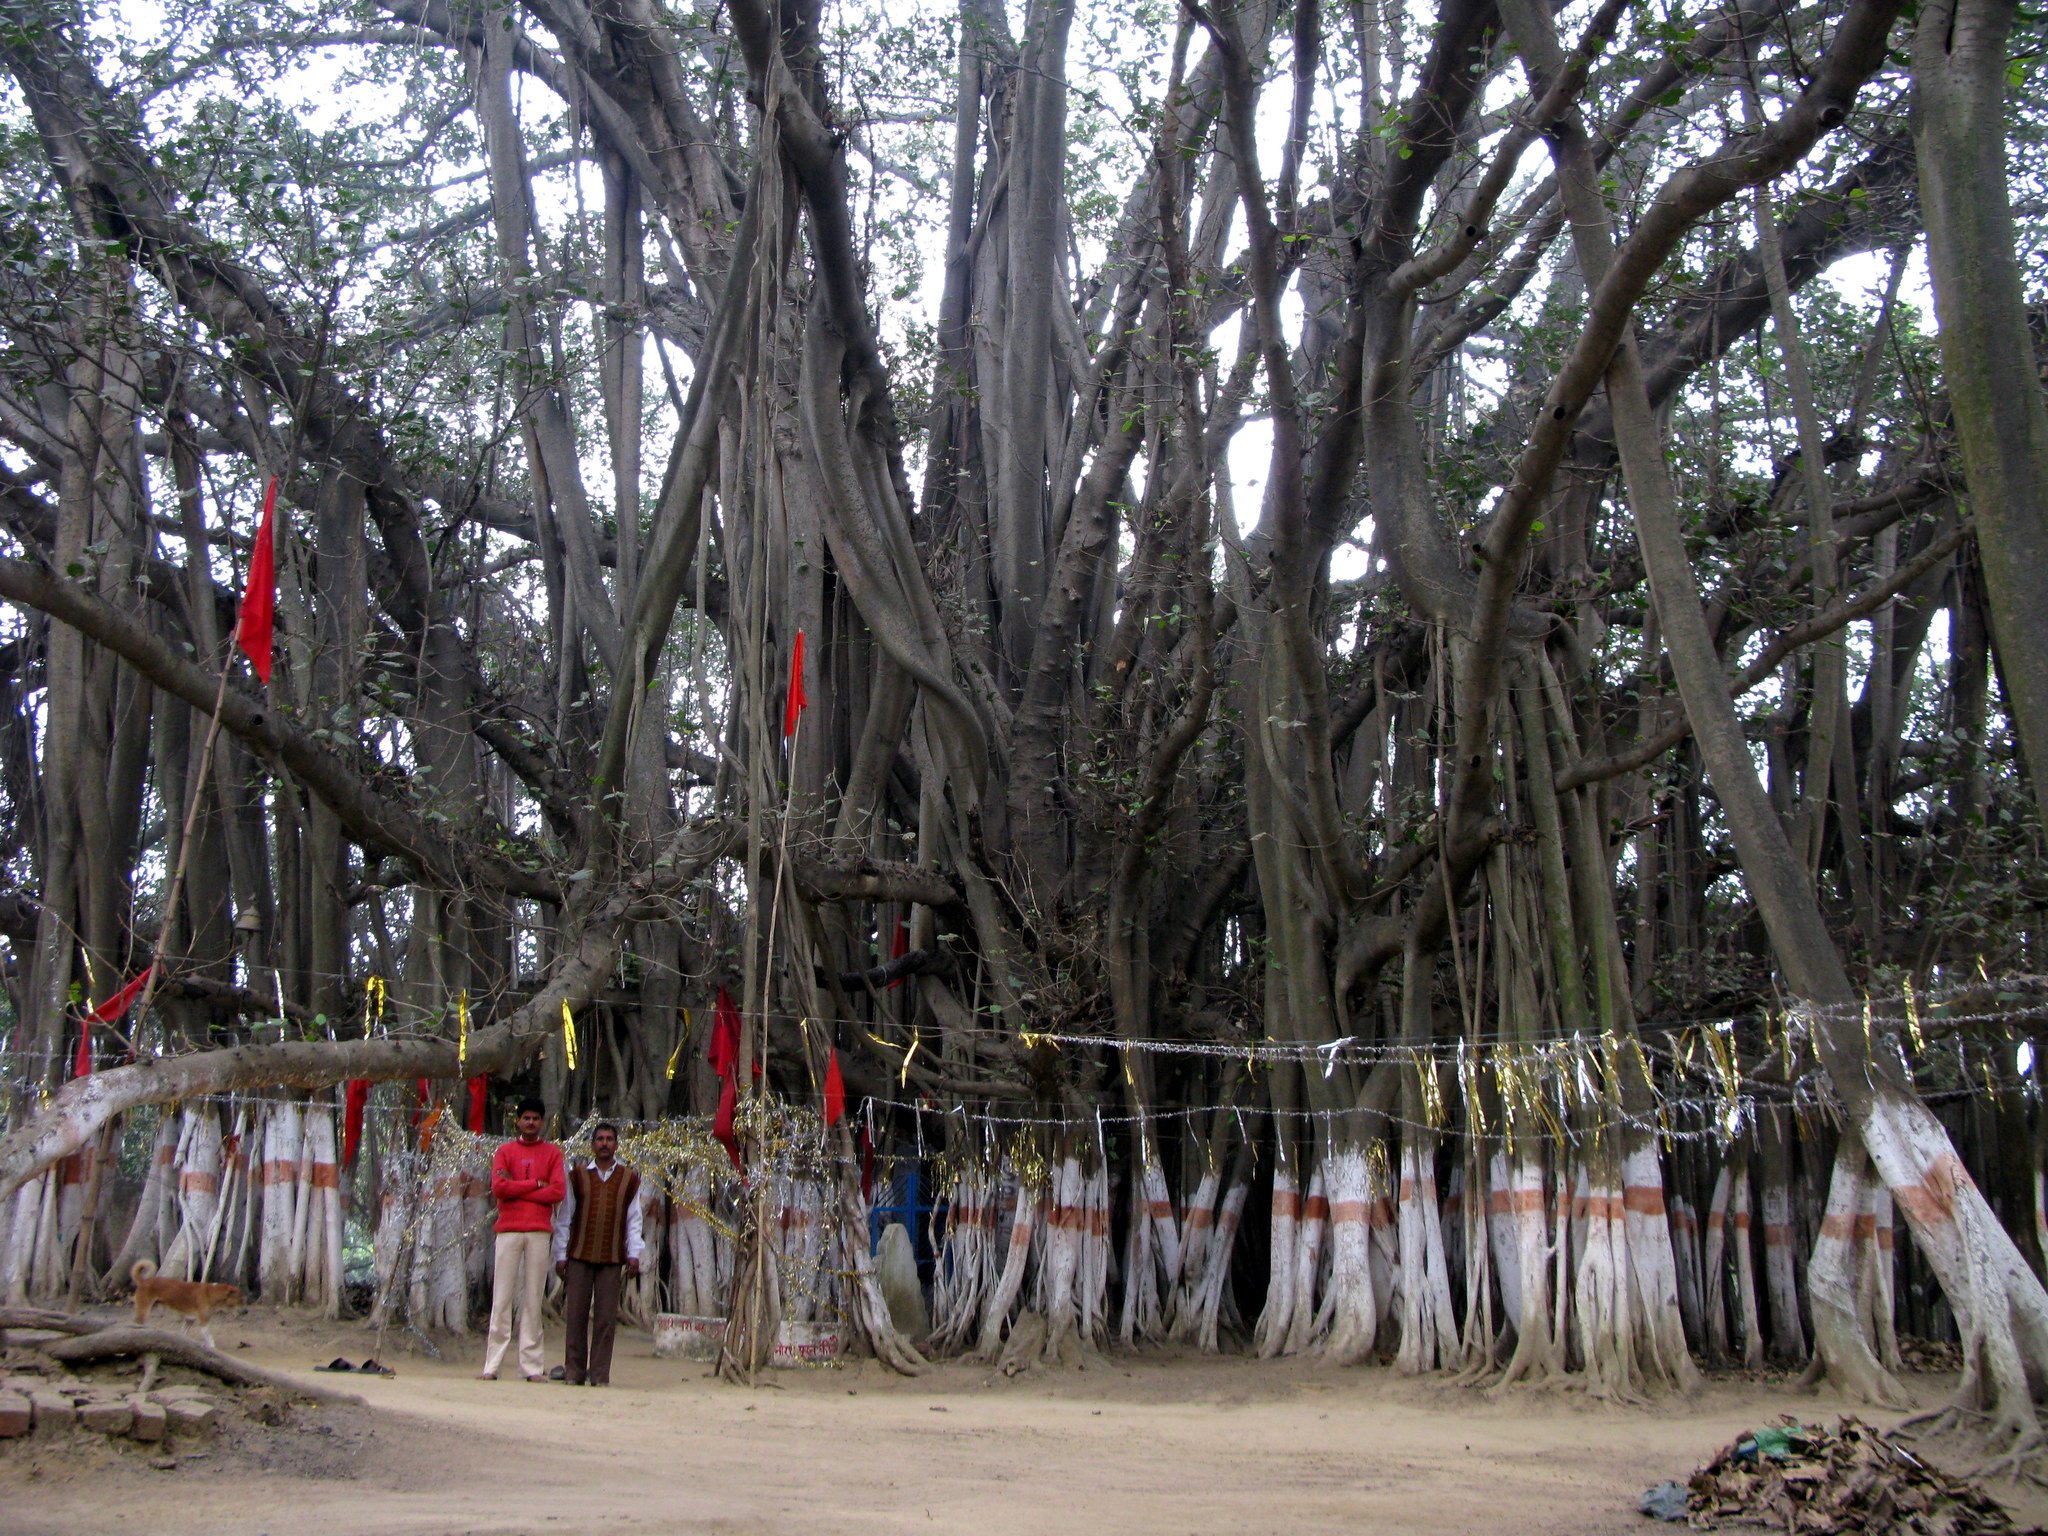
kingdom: Plantae
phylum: Tracheophyta
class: Magnoliopsida
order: Rosales
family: Moraceae
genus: Ficus
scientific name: Ficus benghalensis
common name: Indian banyan
